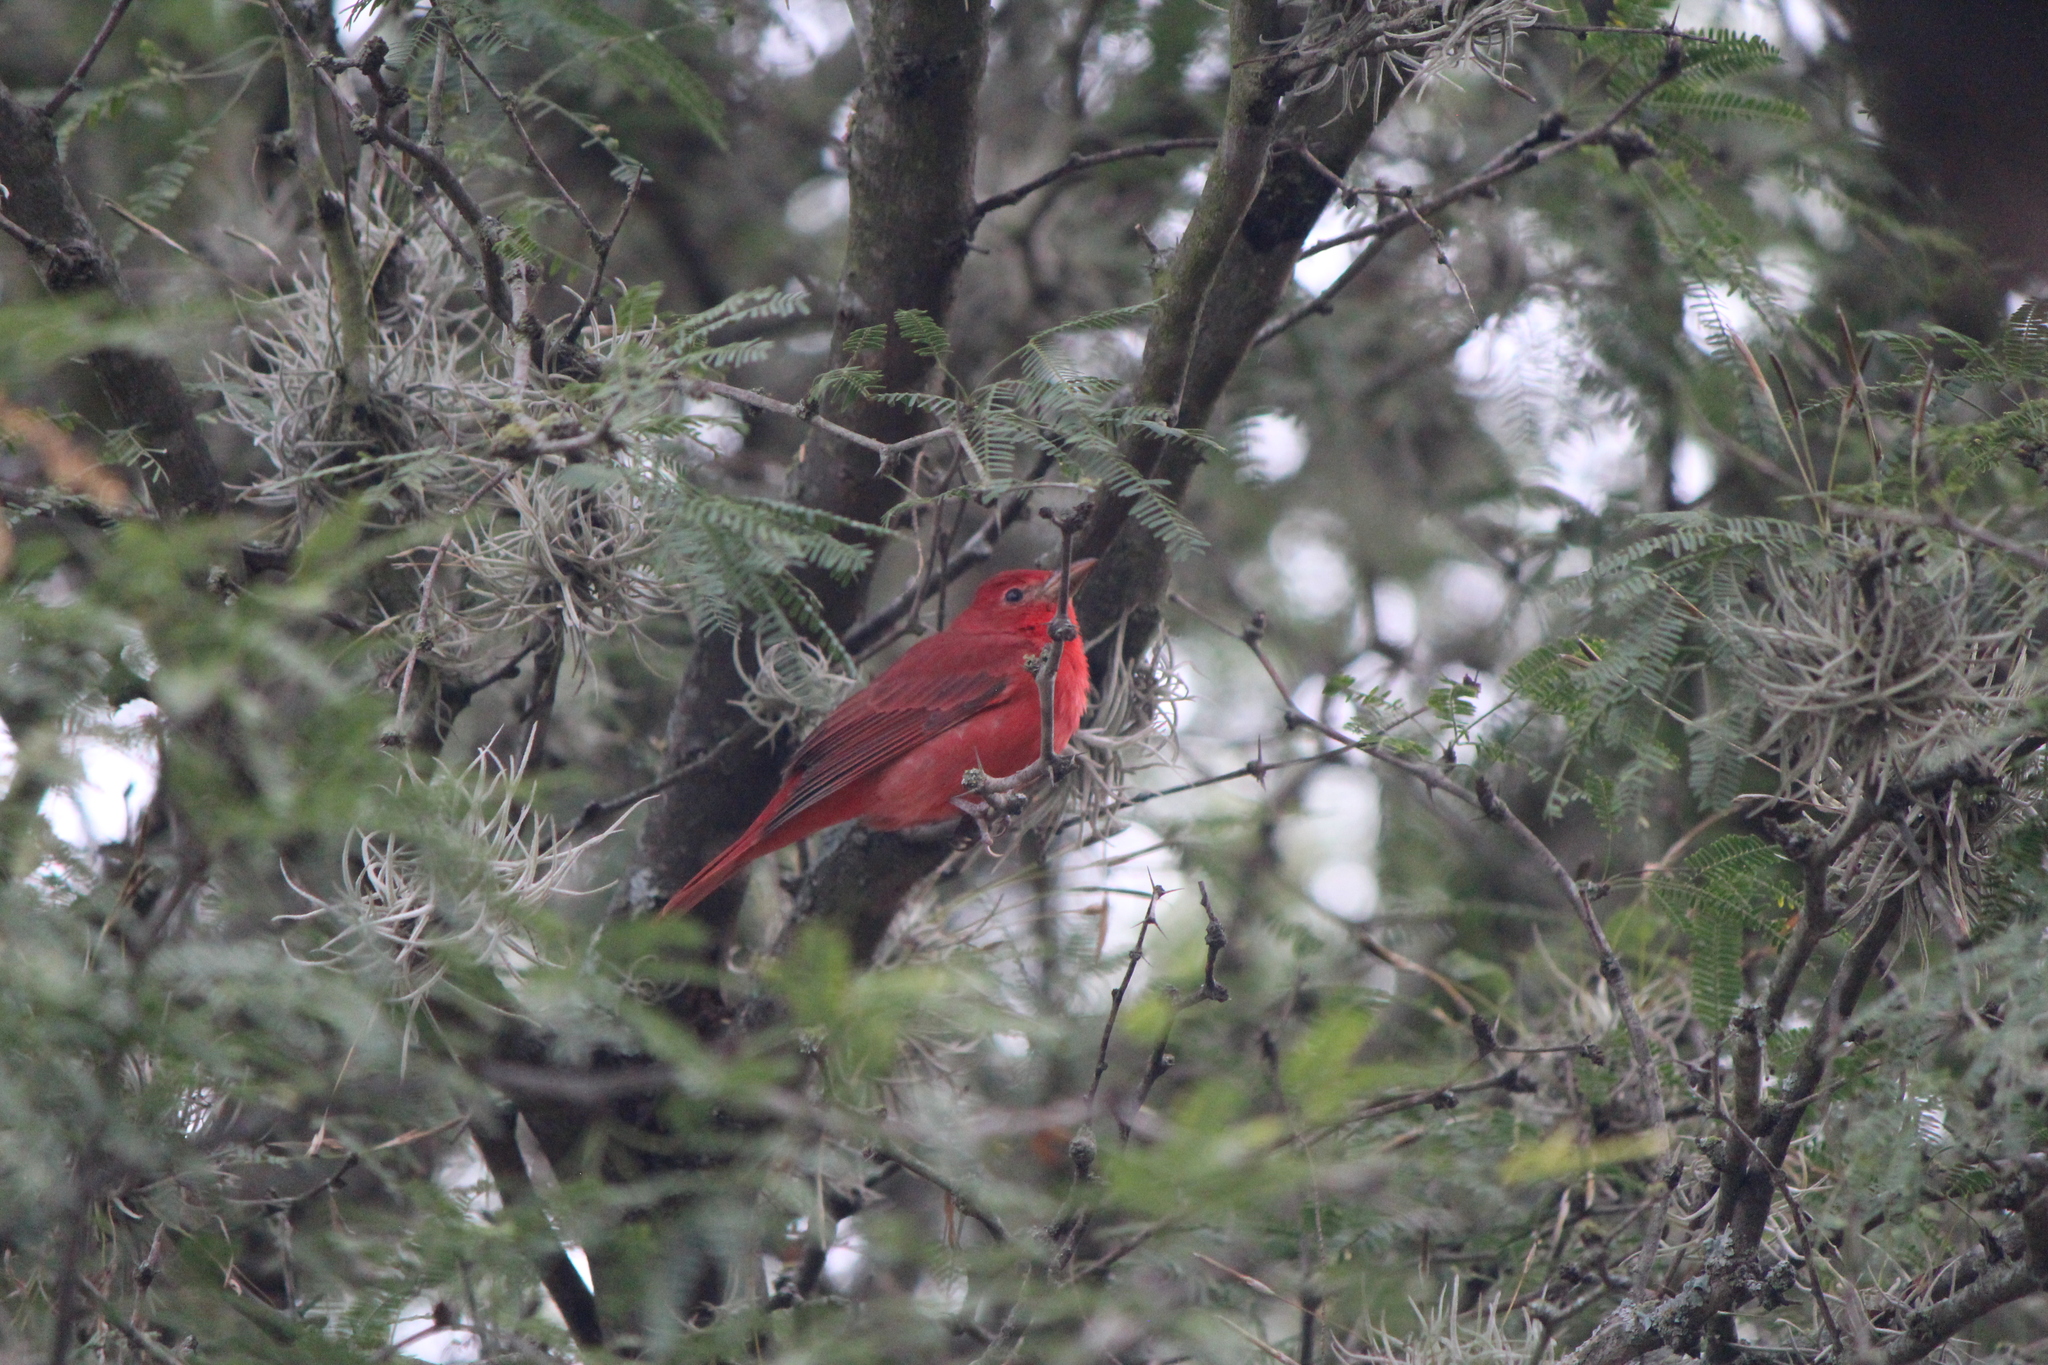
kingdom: Animalia
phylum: Chordata
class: Aves
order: Passeriformes
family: Cardinalidae
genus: Piranga
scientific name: Piranga rubra
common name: Summer tanager
